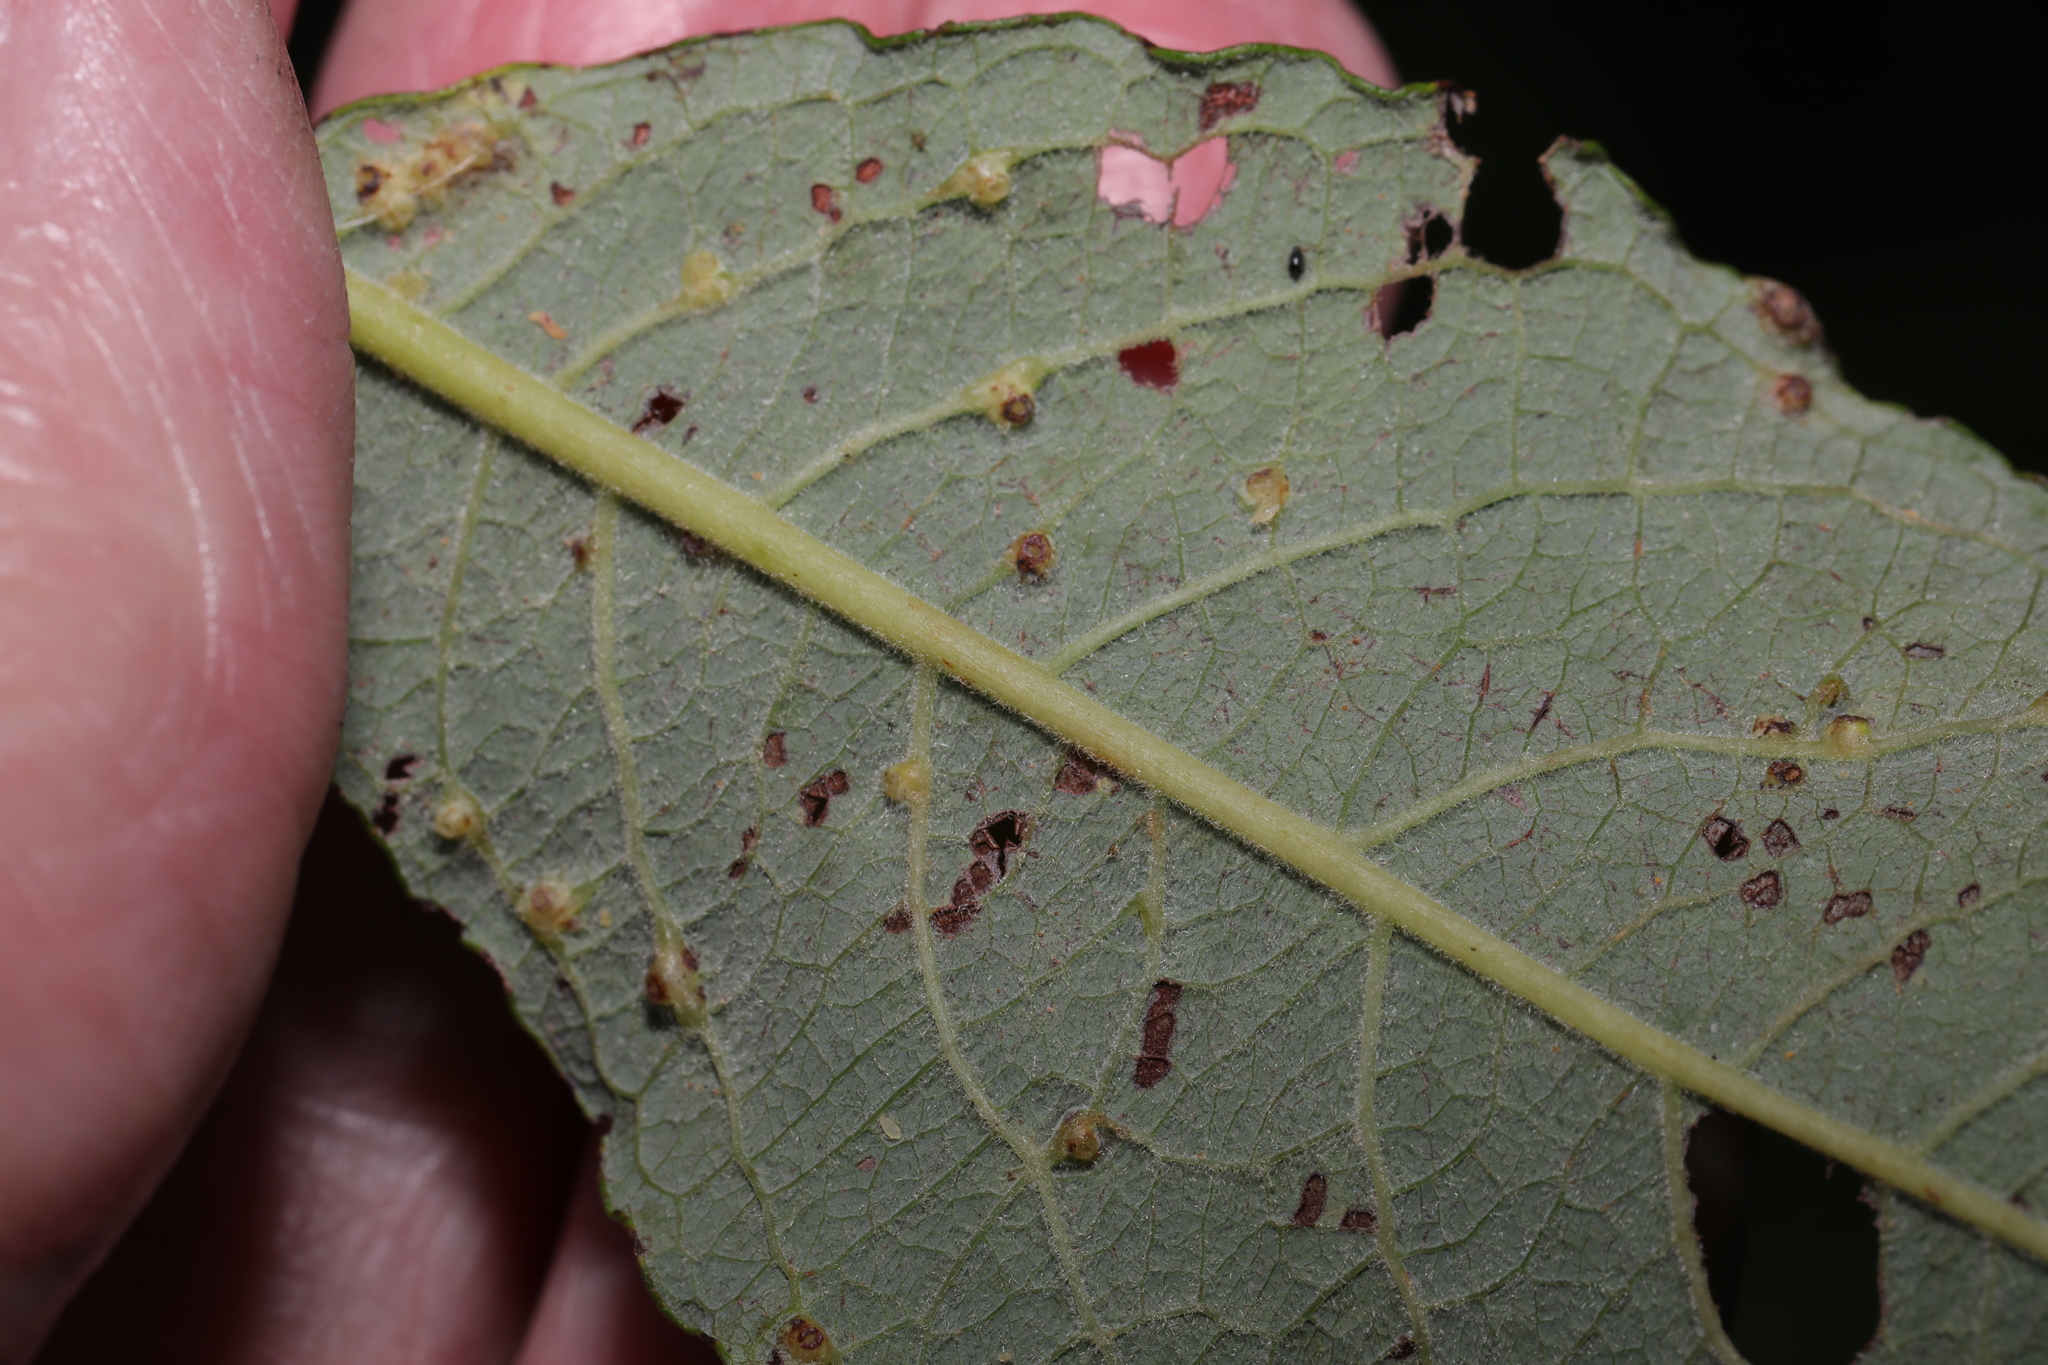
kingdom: Animalia
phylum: Arthropoda
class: Insecta
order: Diptera
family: Cecidomyiidae
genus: Iteomyia
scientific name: Iteomyia capreae
